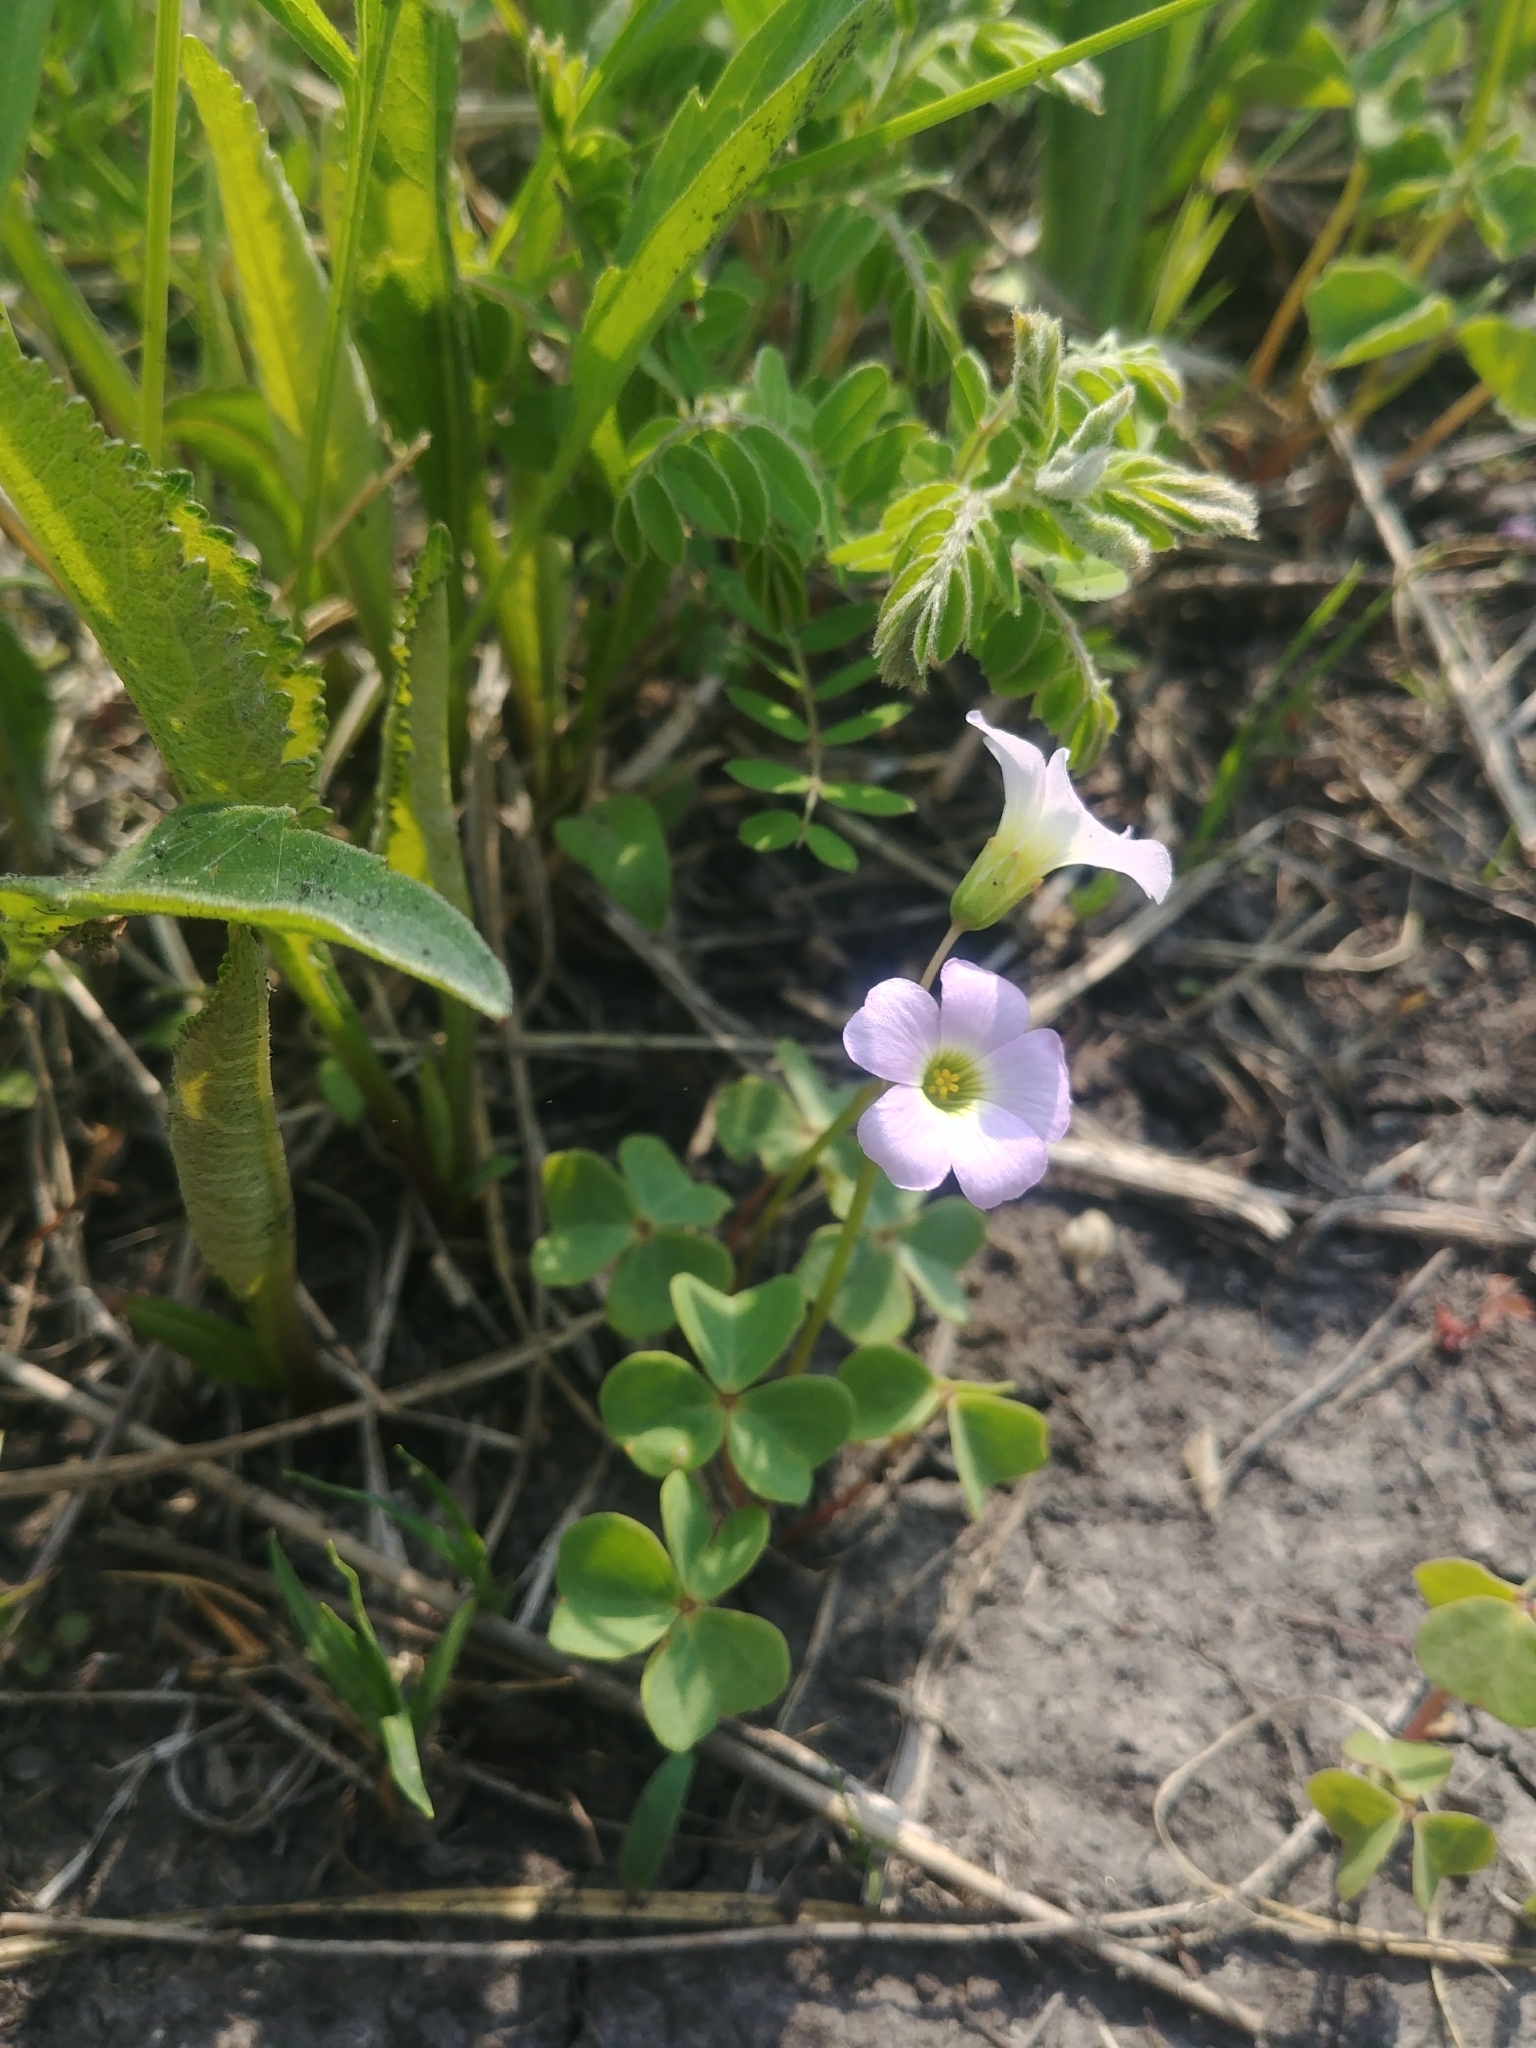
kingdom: Plantae
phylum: Tracheophyta
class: Magnoliopsida
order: Oxalidales
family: Oxalidaceae
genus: Oxalis
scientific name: Oxalis violacea
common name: Violet wood-sorrel
